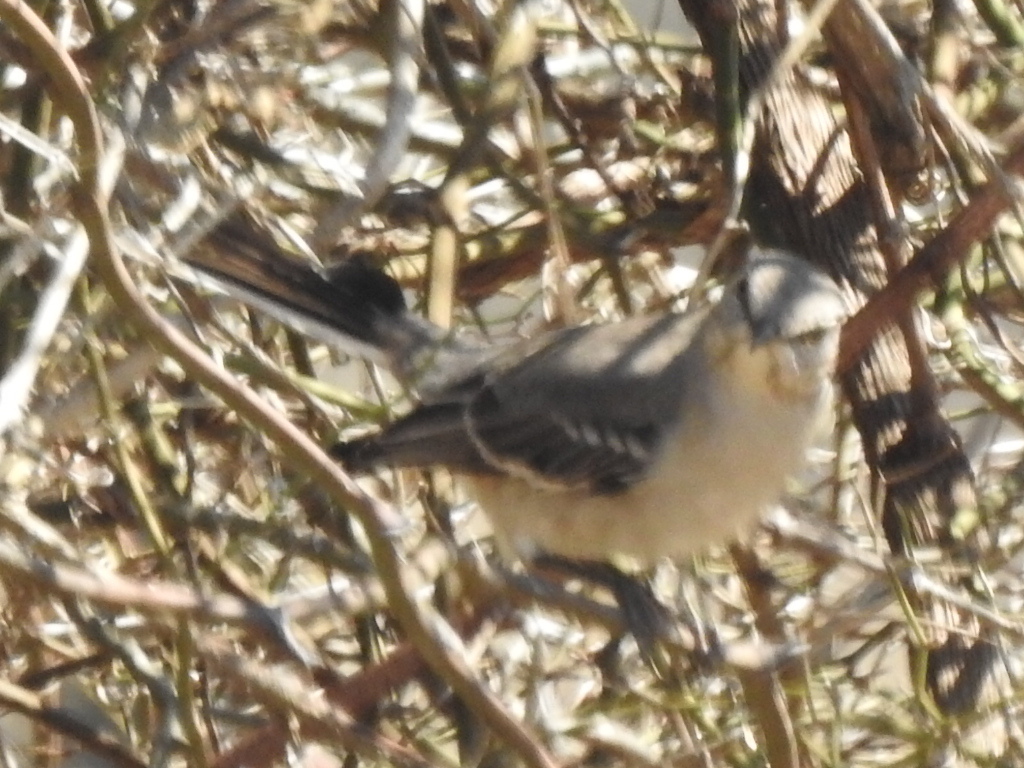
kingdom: Animalia
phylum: Chordata
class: Aves
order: Passeriformes
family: Mimidae
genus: Mimus
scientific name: Mimus polyglottos
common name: Northern mockingbird
